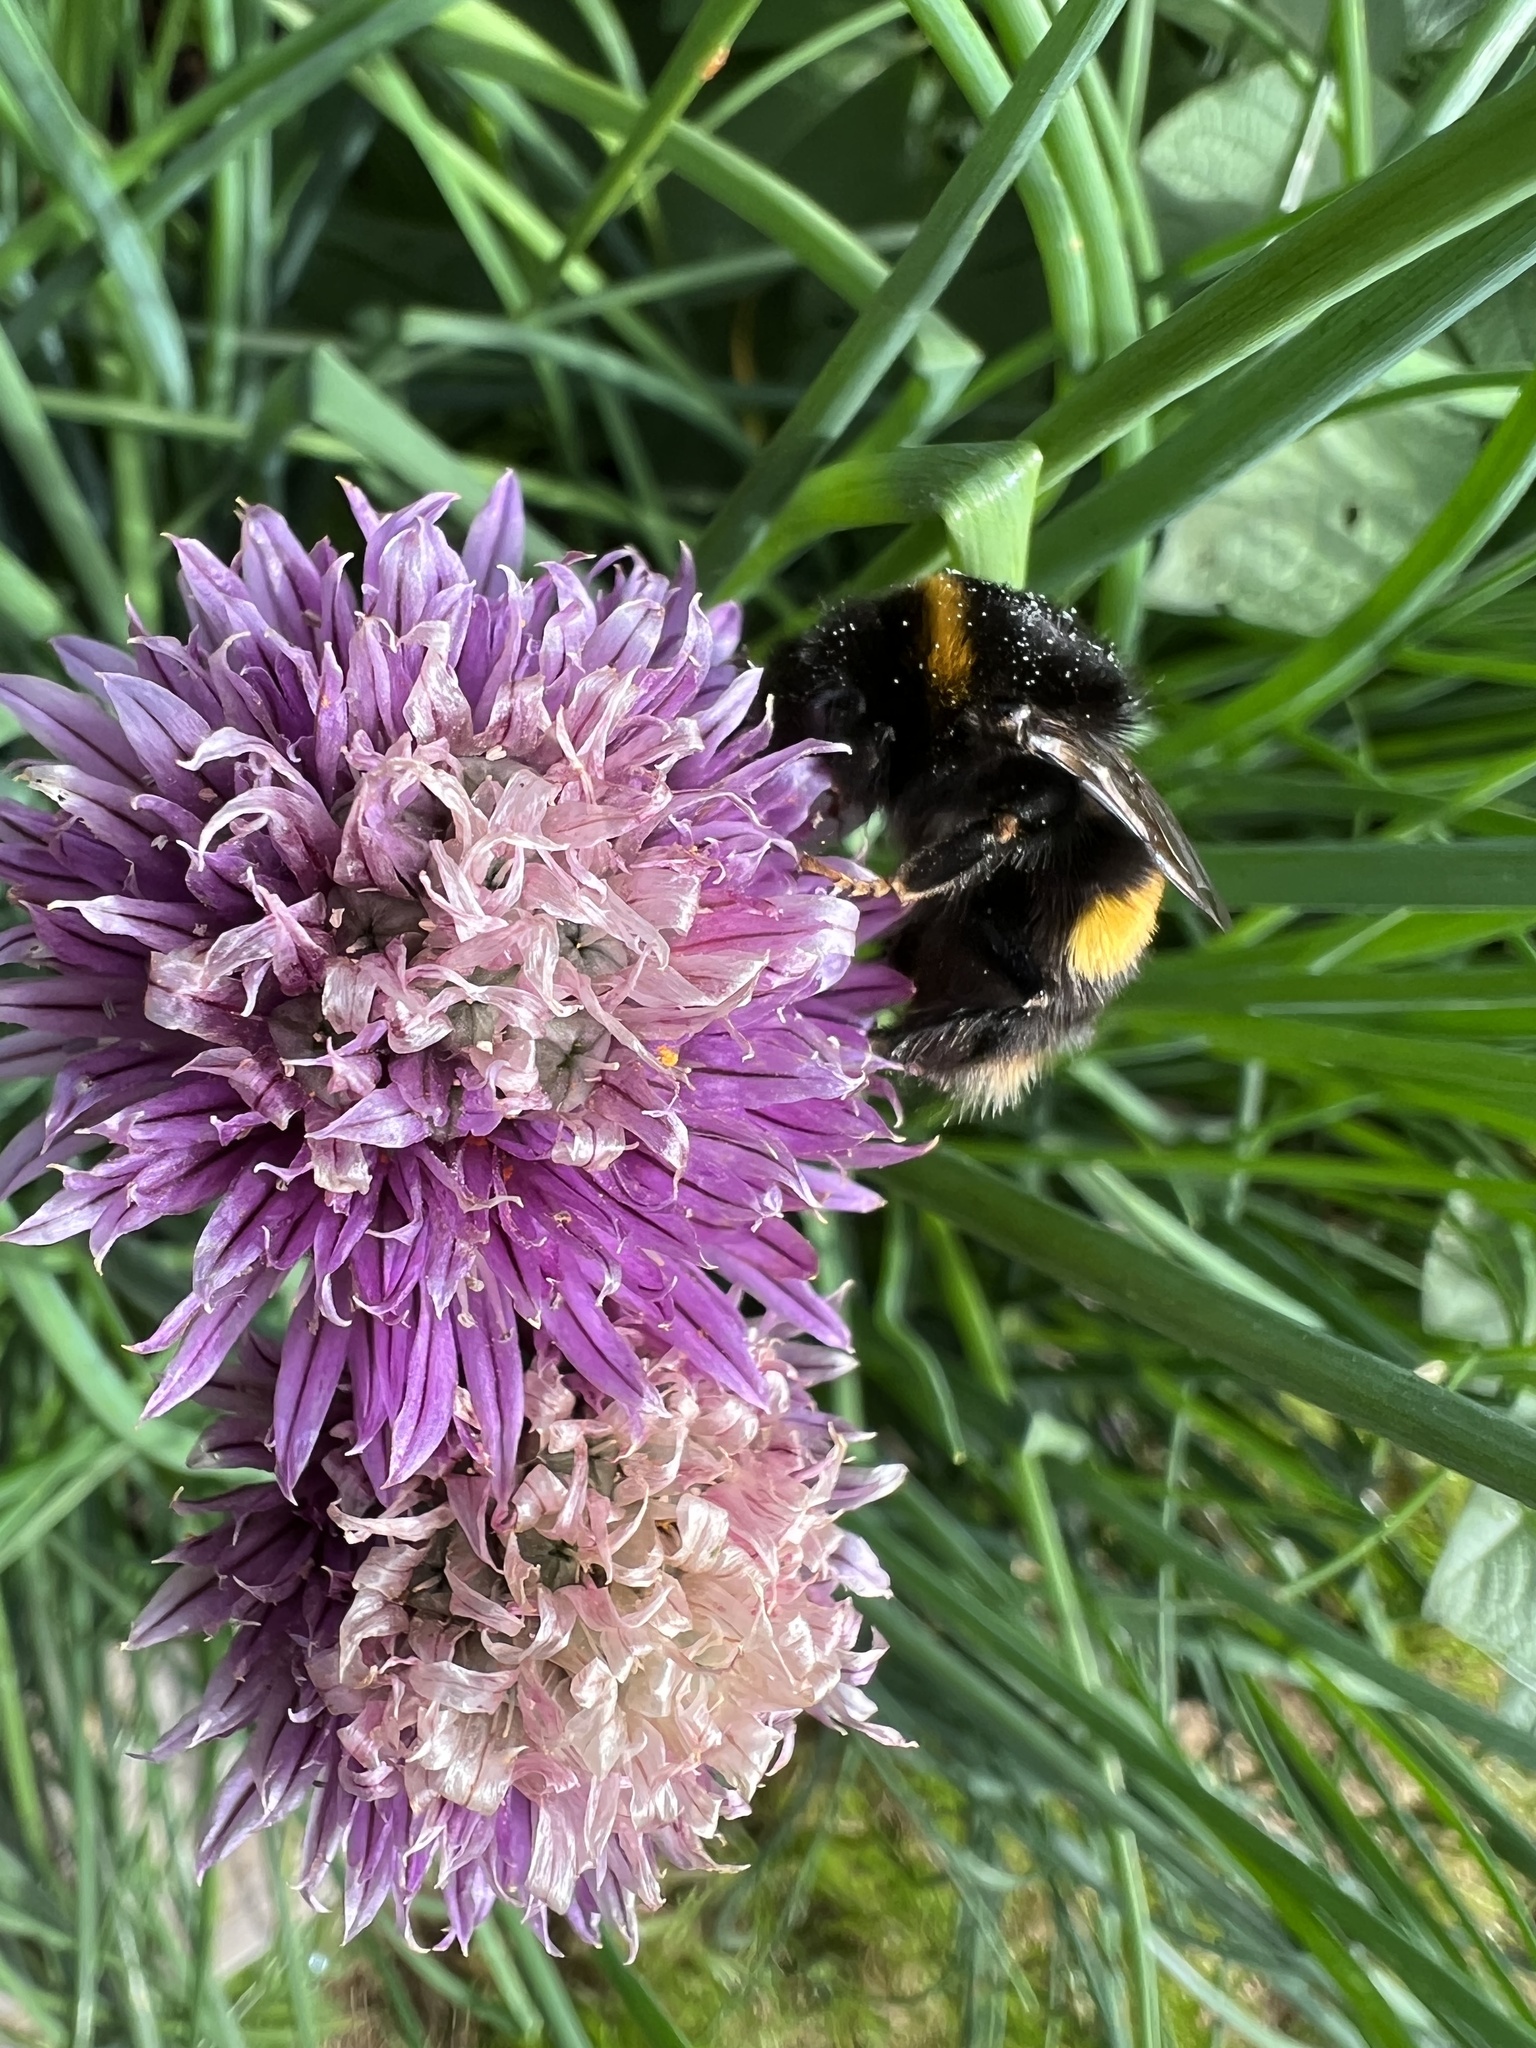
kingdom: Animalia
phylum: Arthropoda
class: Insecta
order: Hymenoptera
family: Apidae
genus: Bombus
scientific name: Bombus terrestris
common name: Buff-tailed bumblebee
